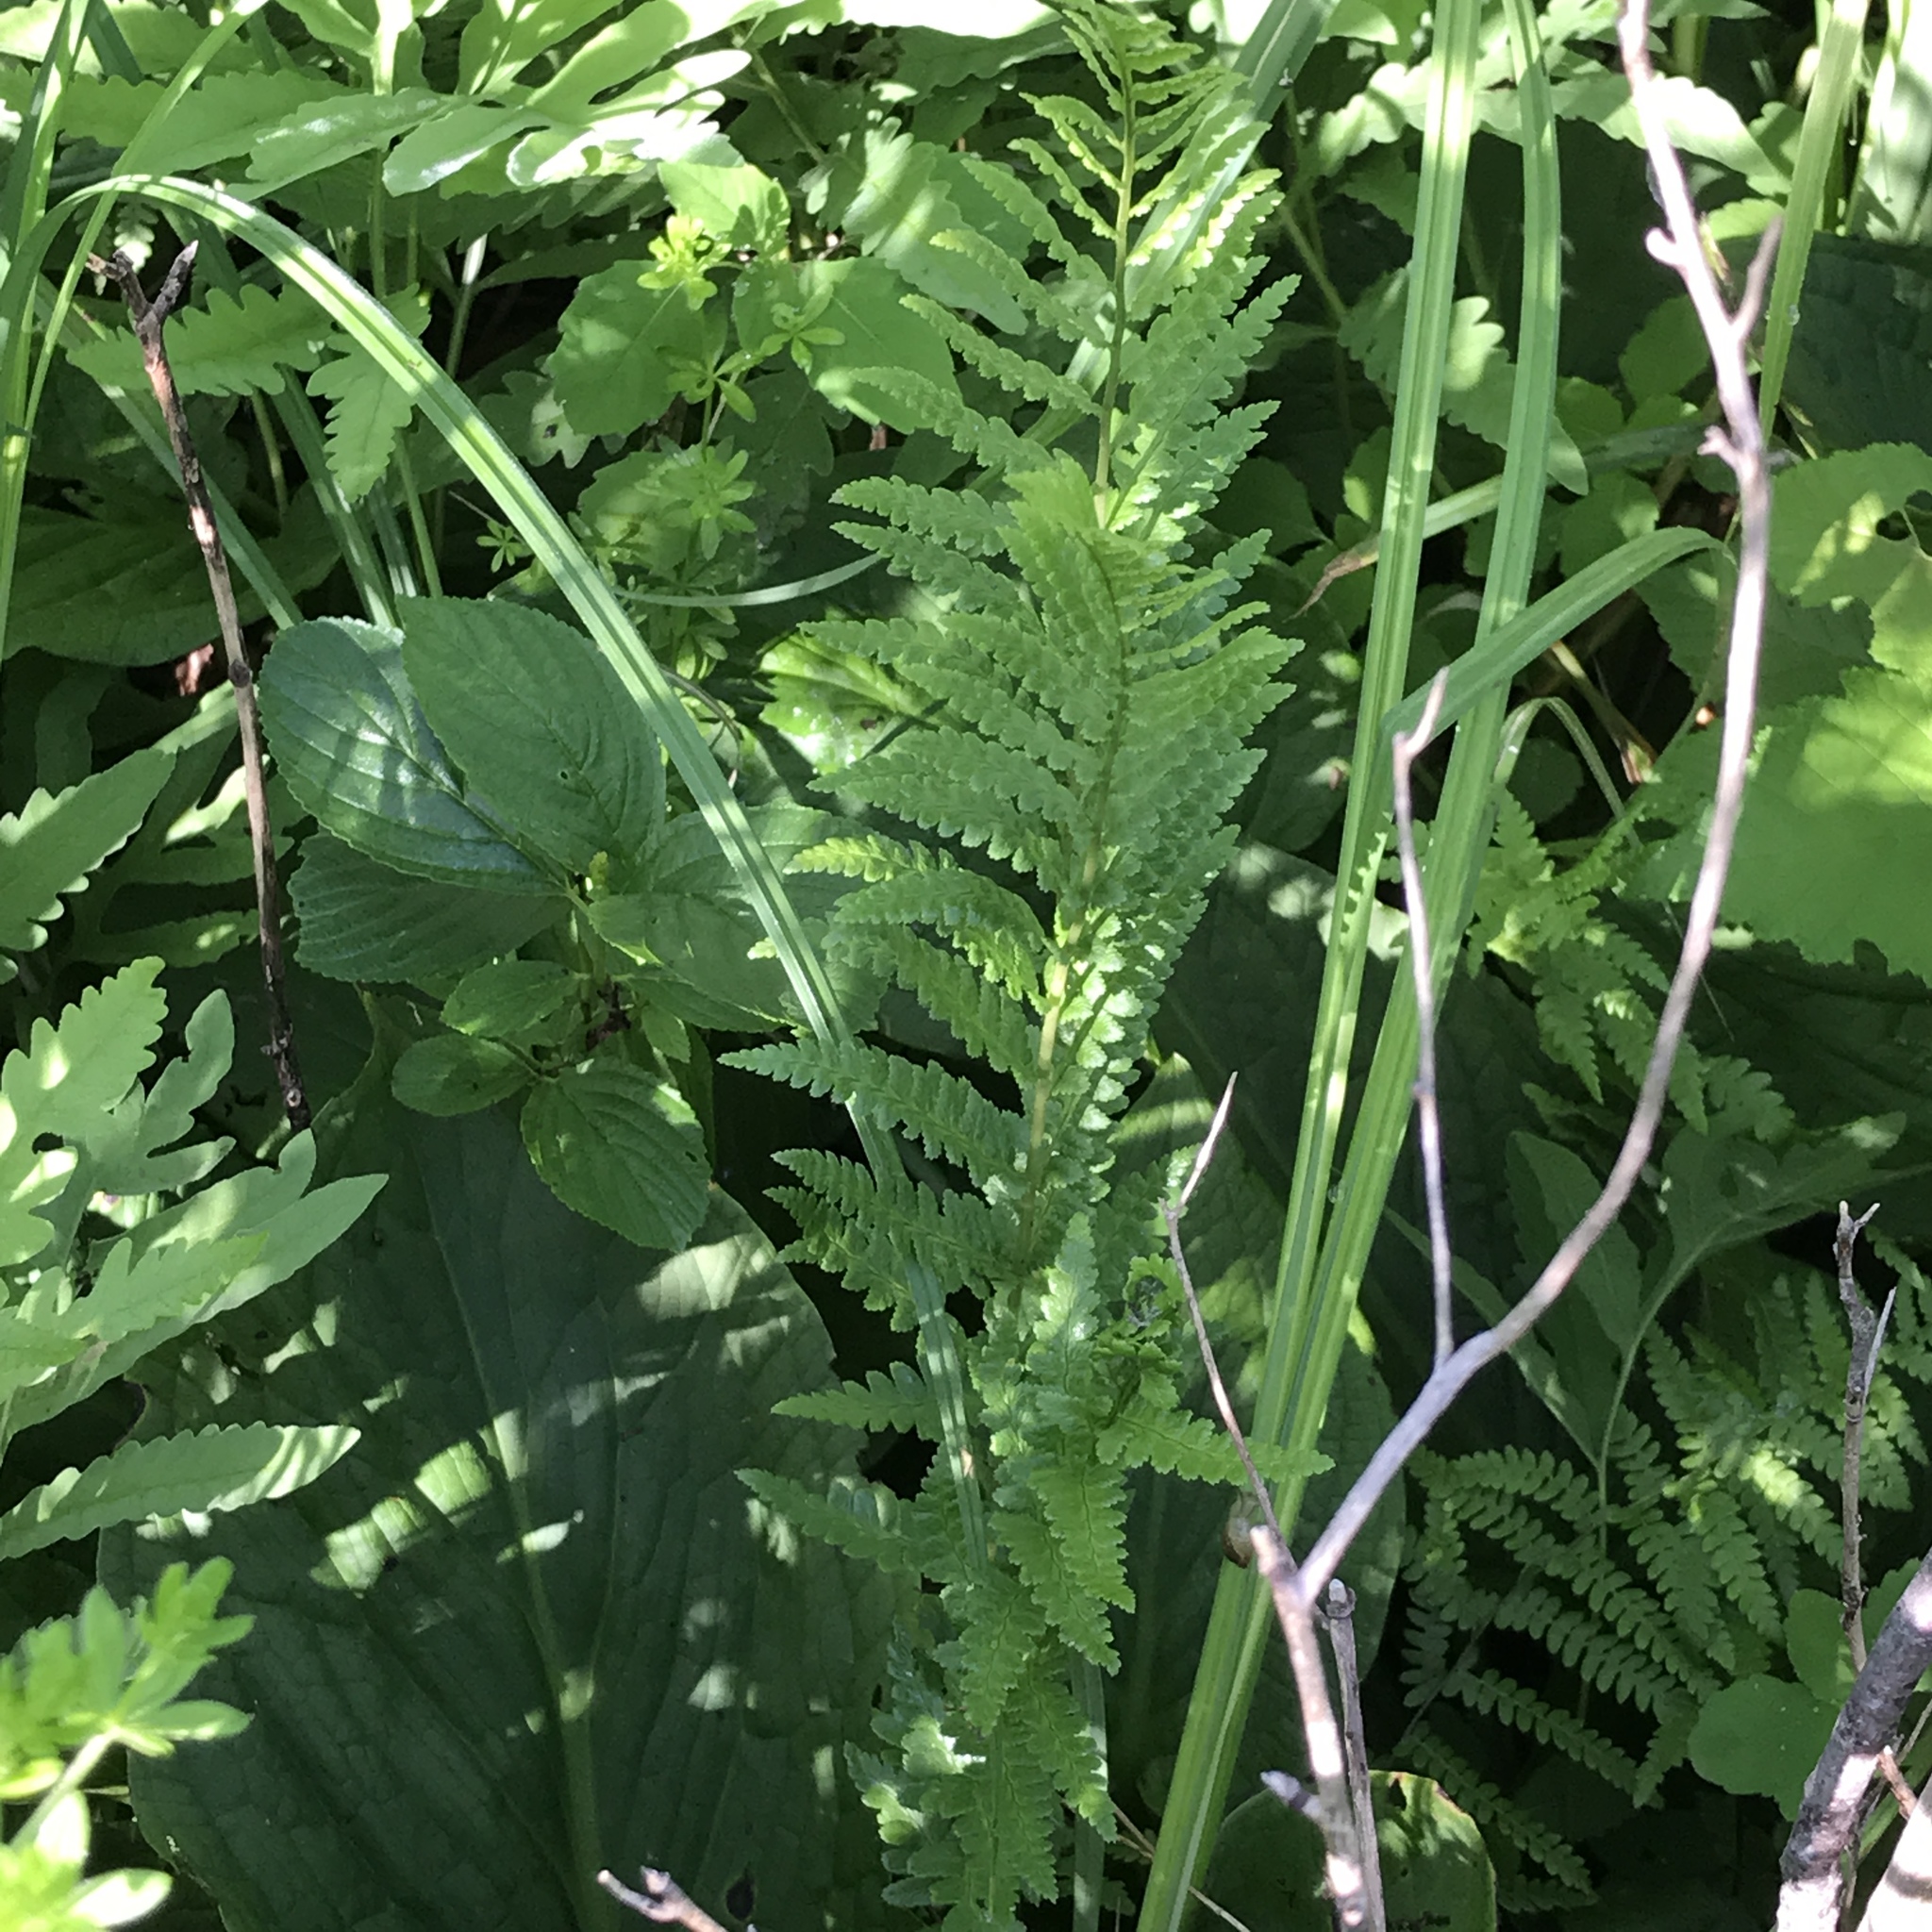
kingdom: Plantae
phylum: Tracheophyta
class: Polypodiopsida
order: Polypodiales
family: Dryopteridaceae
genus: Dryopteris
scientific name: Dryopteris cristata
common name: Crested wood fern
